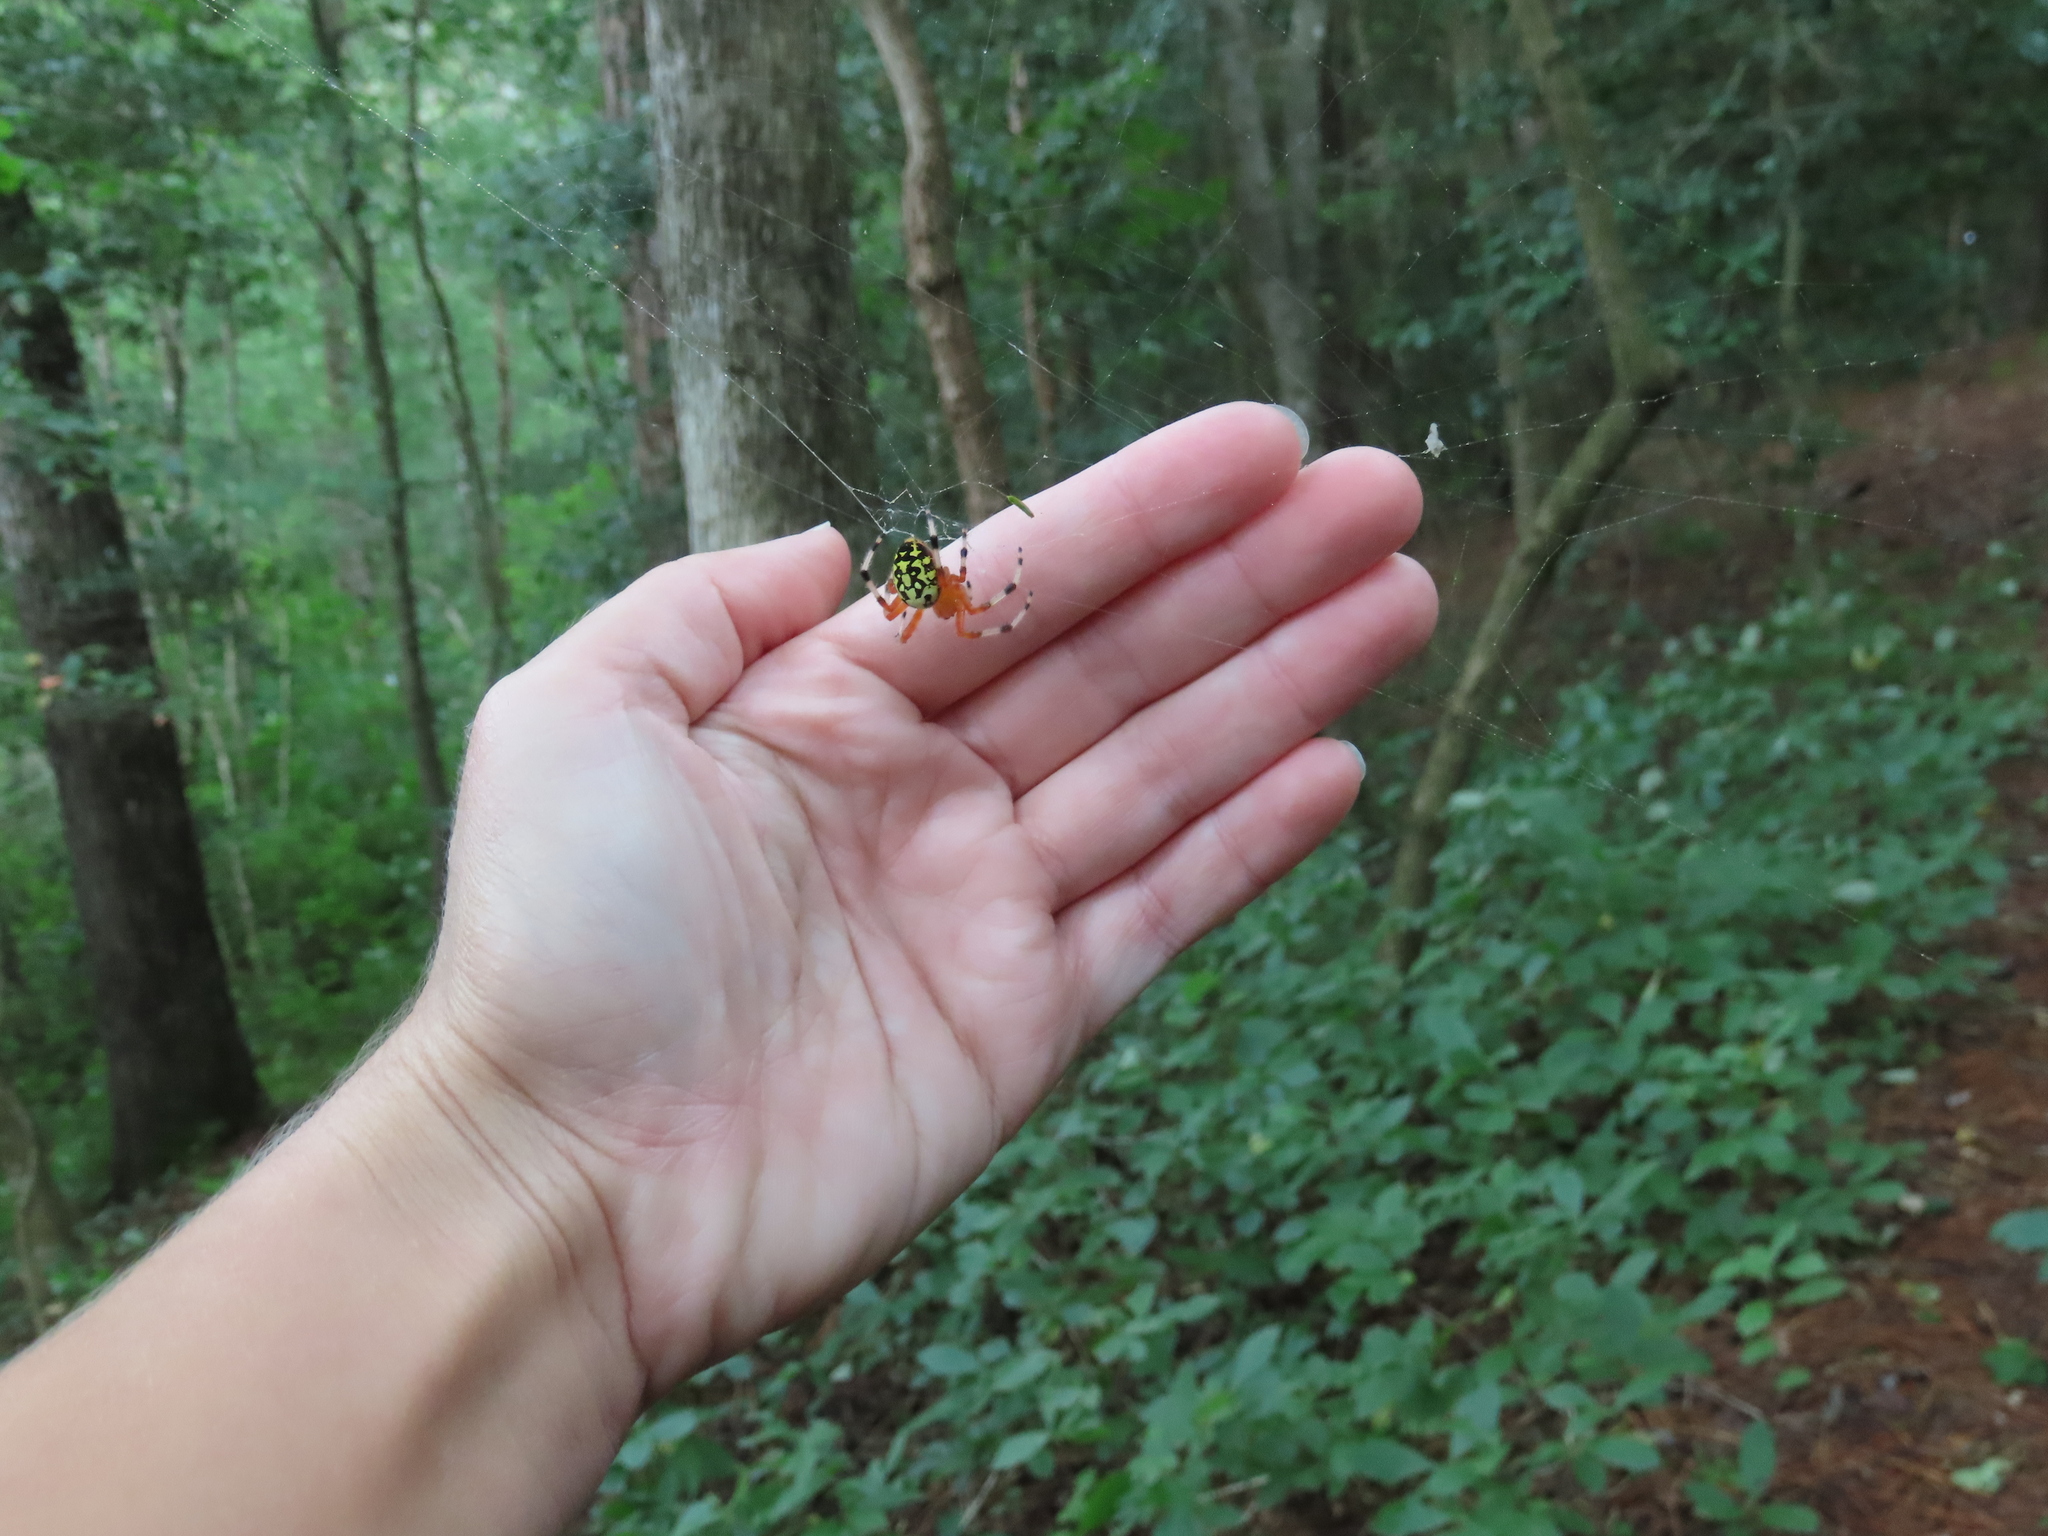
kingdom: Animalia
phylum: Arthropoda
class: Arachnida
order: Araneae
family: Araneidae
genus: Araneus
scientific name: Araneus marmoreus
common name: Marbled orbweaver
